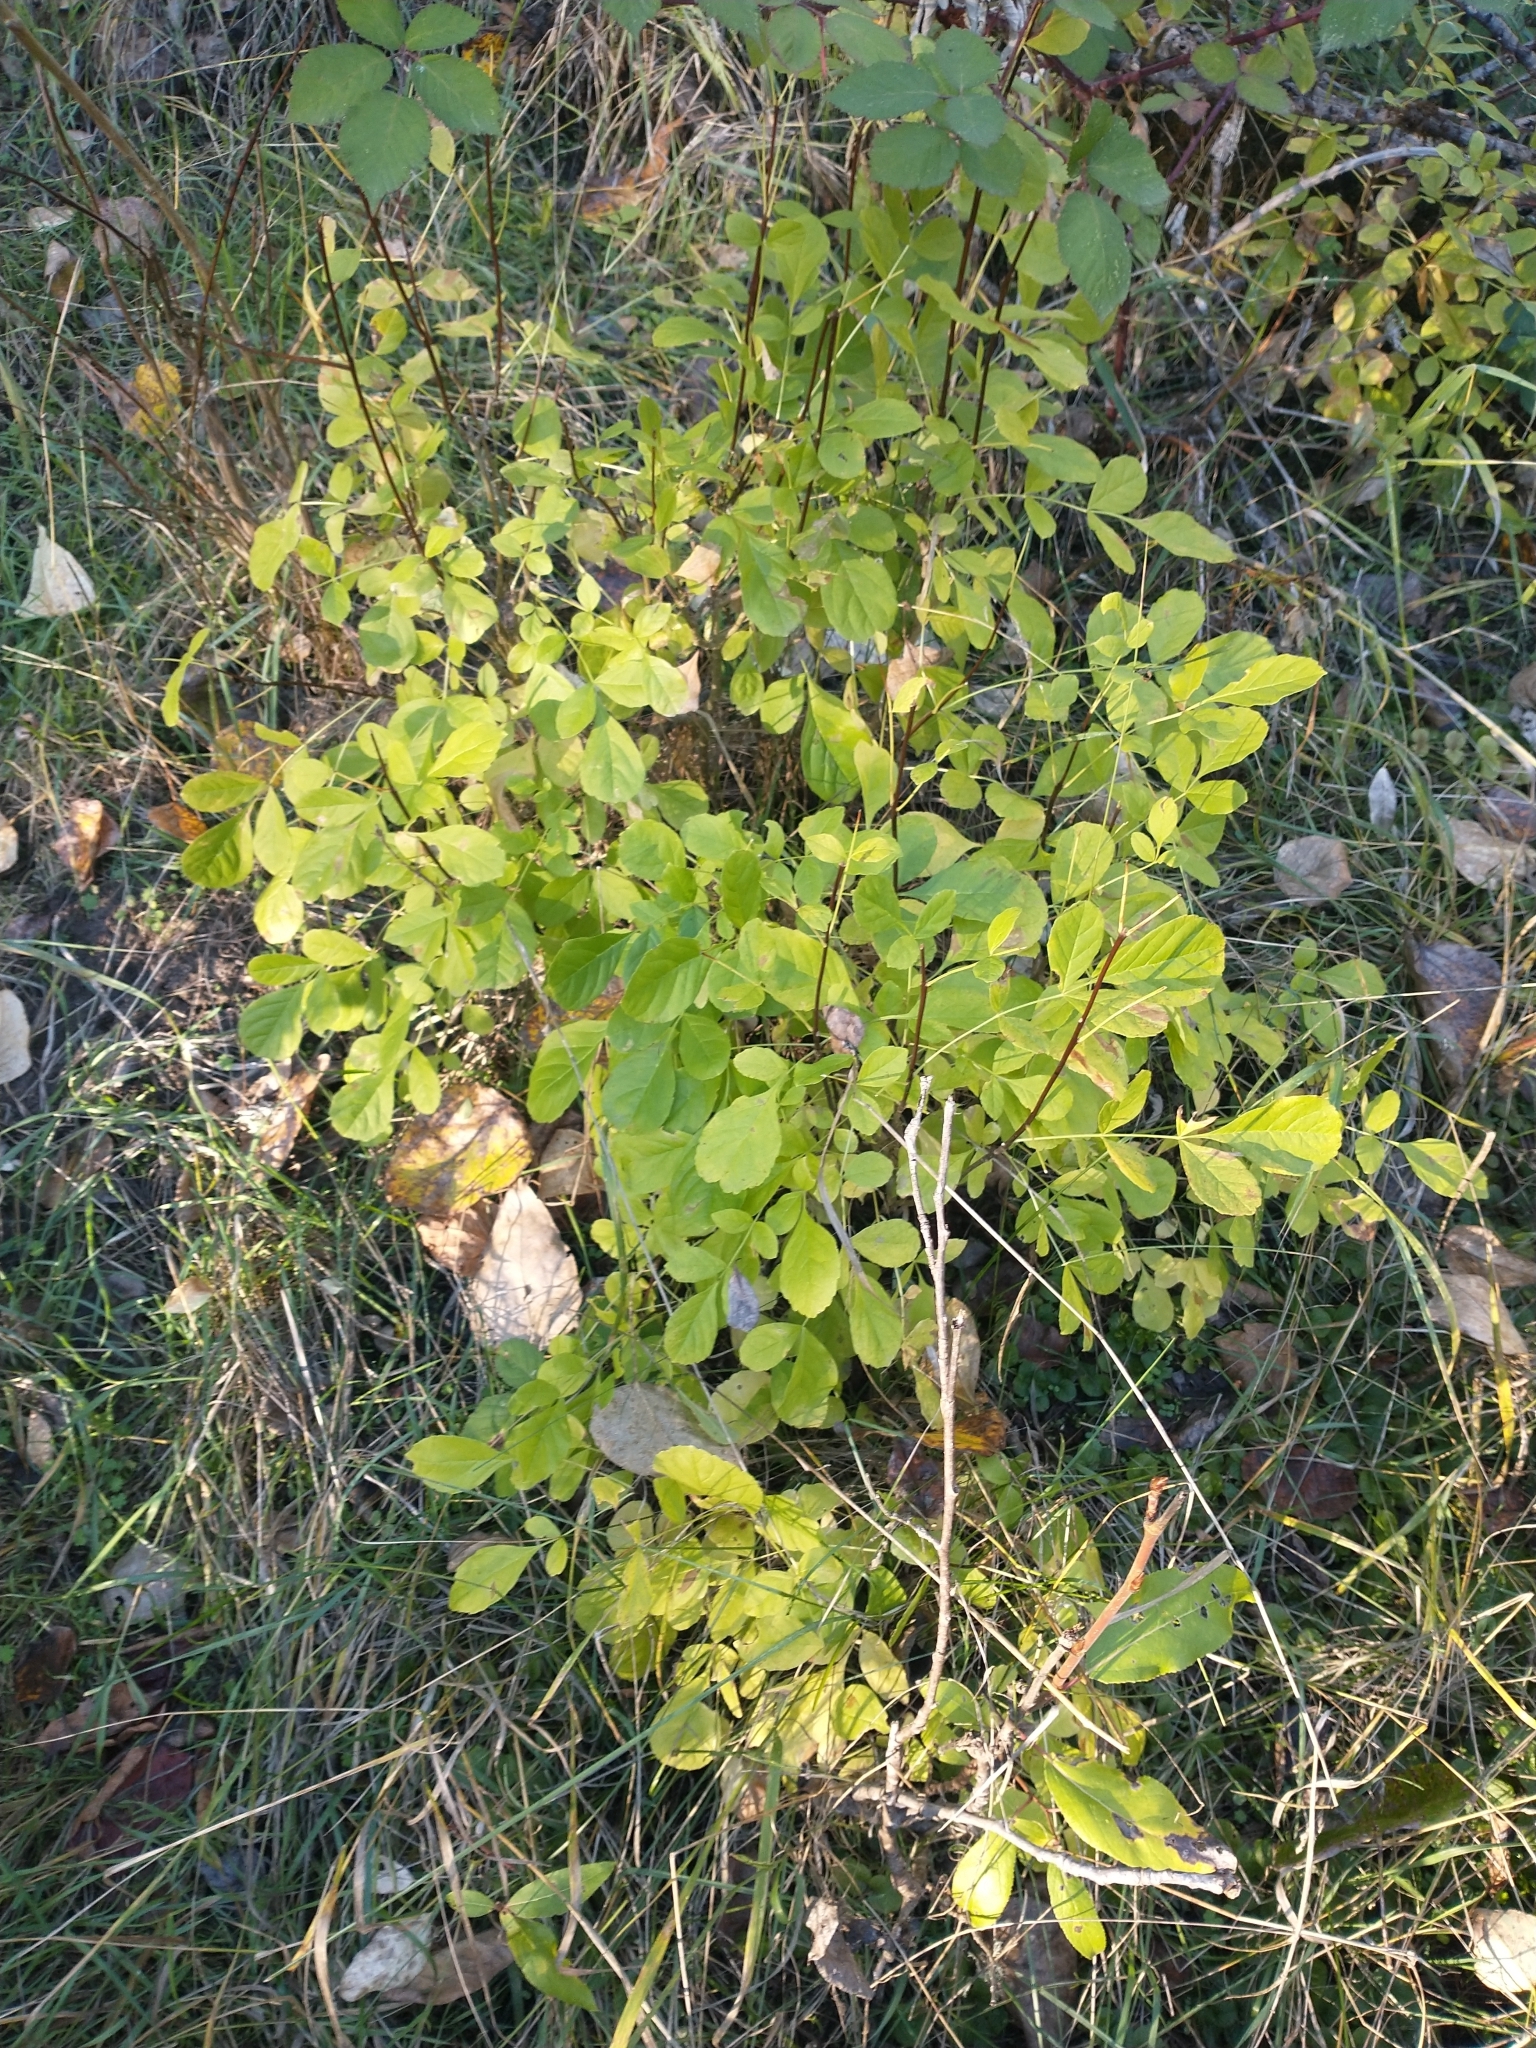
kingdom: Plantae
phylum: Tracheophyta
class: Magnoliopsida
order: Lamiales
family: Oleaceae
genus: Fraxinus
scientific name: Fraxinus latifolia
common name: Oregon ash
